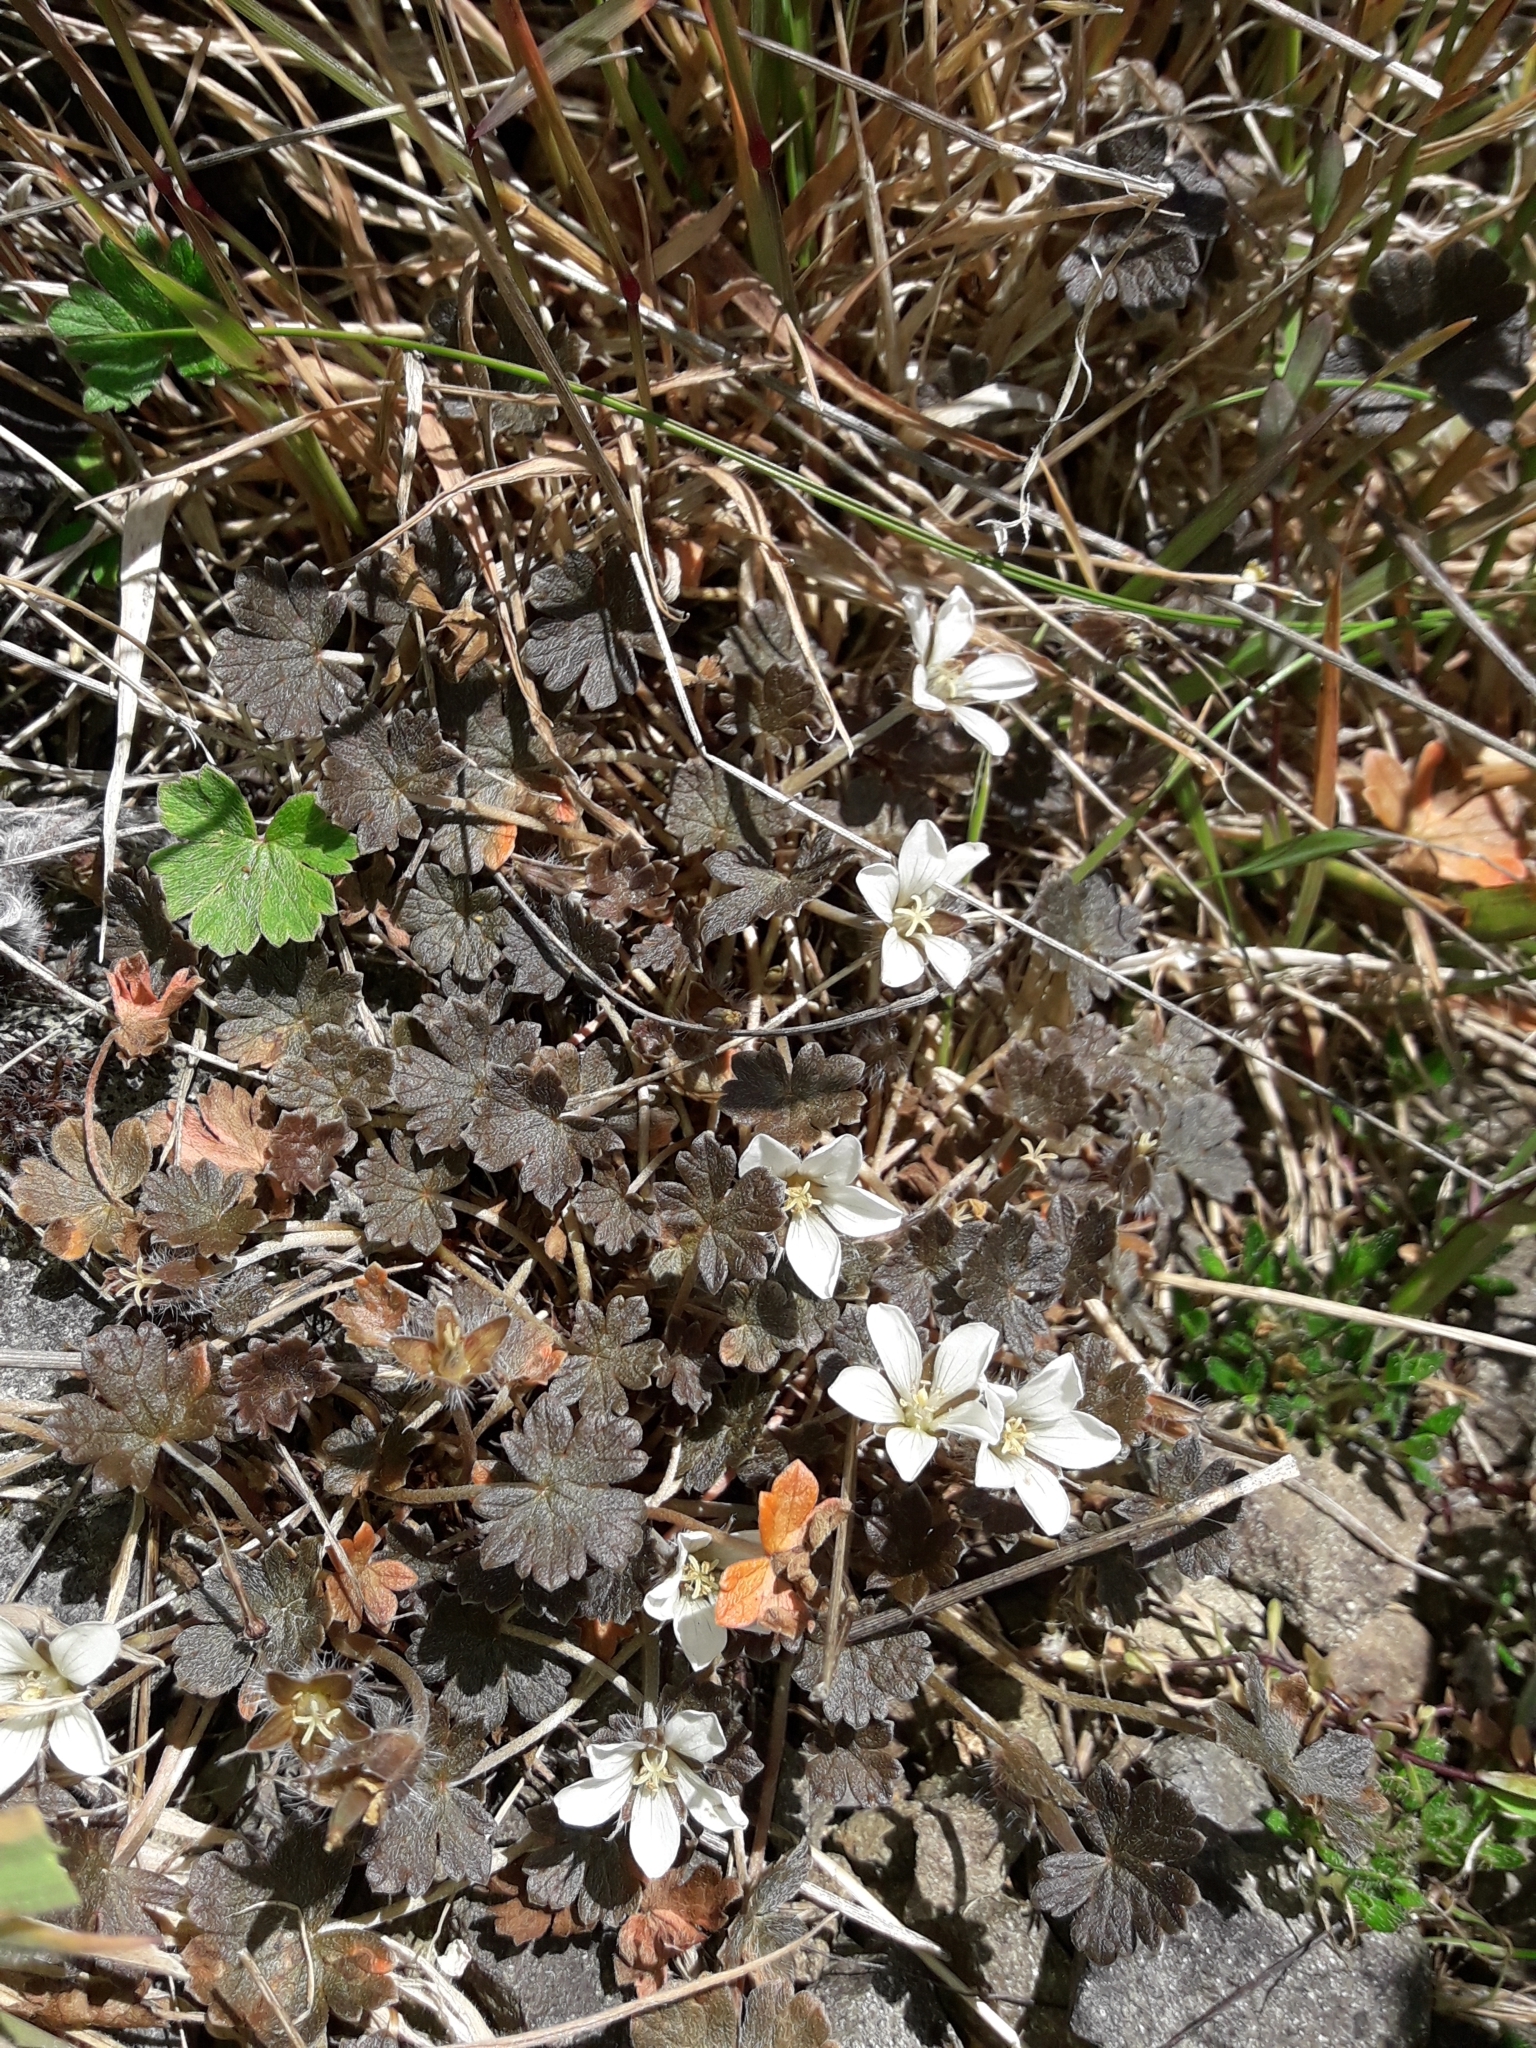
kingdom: Plantae
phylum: Tracheophyta
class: Magnoliopsida
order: Geraniales
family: Geraniaceae
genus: Geranium
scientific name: Geranium brevicaule
